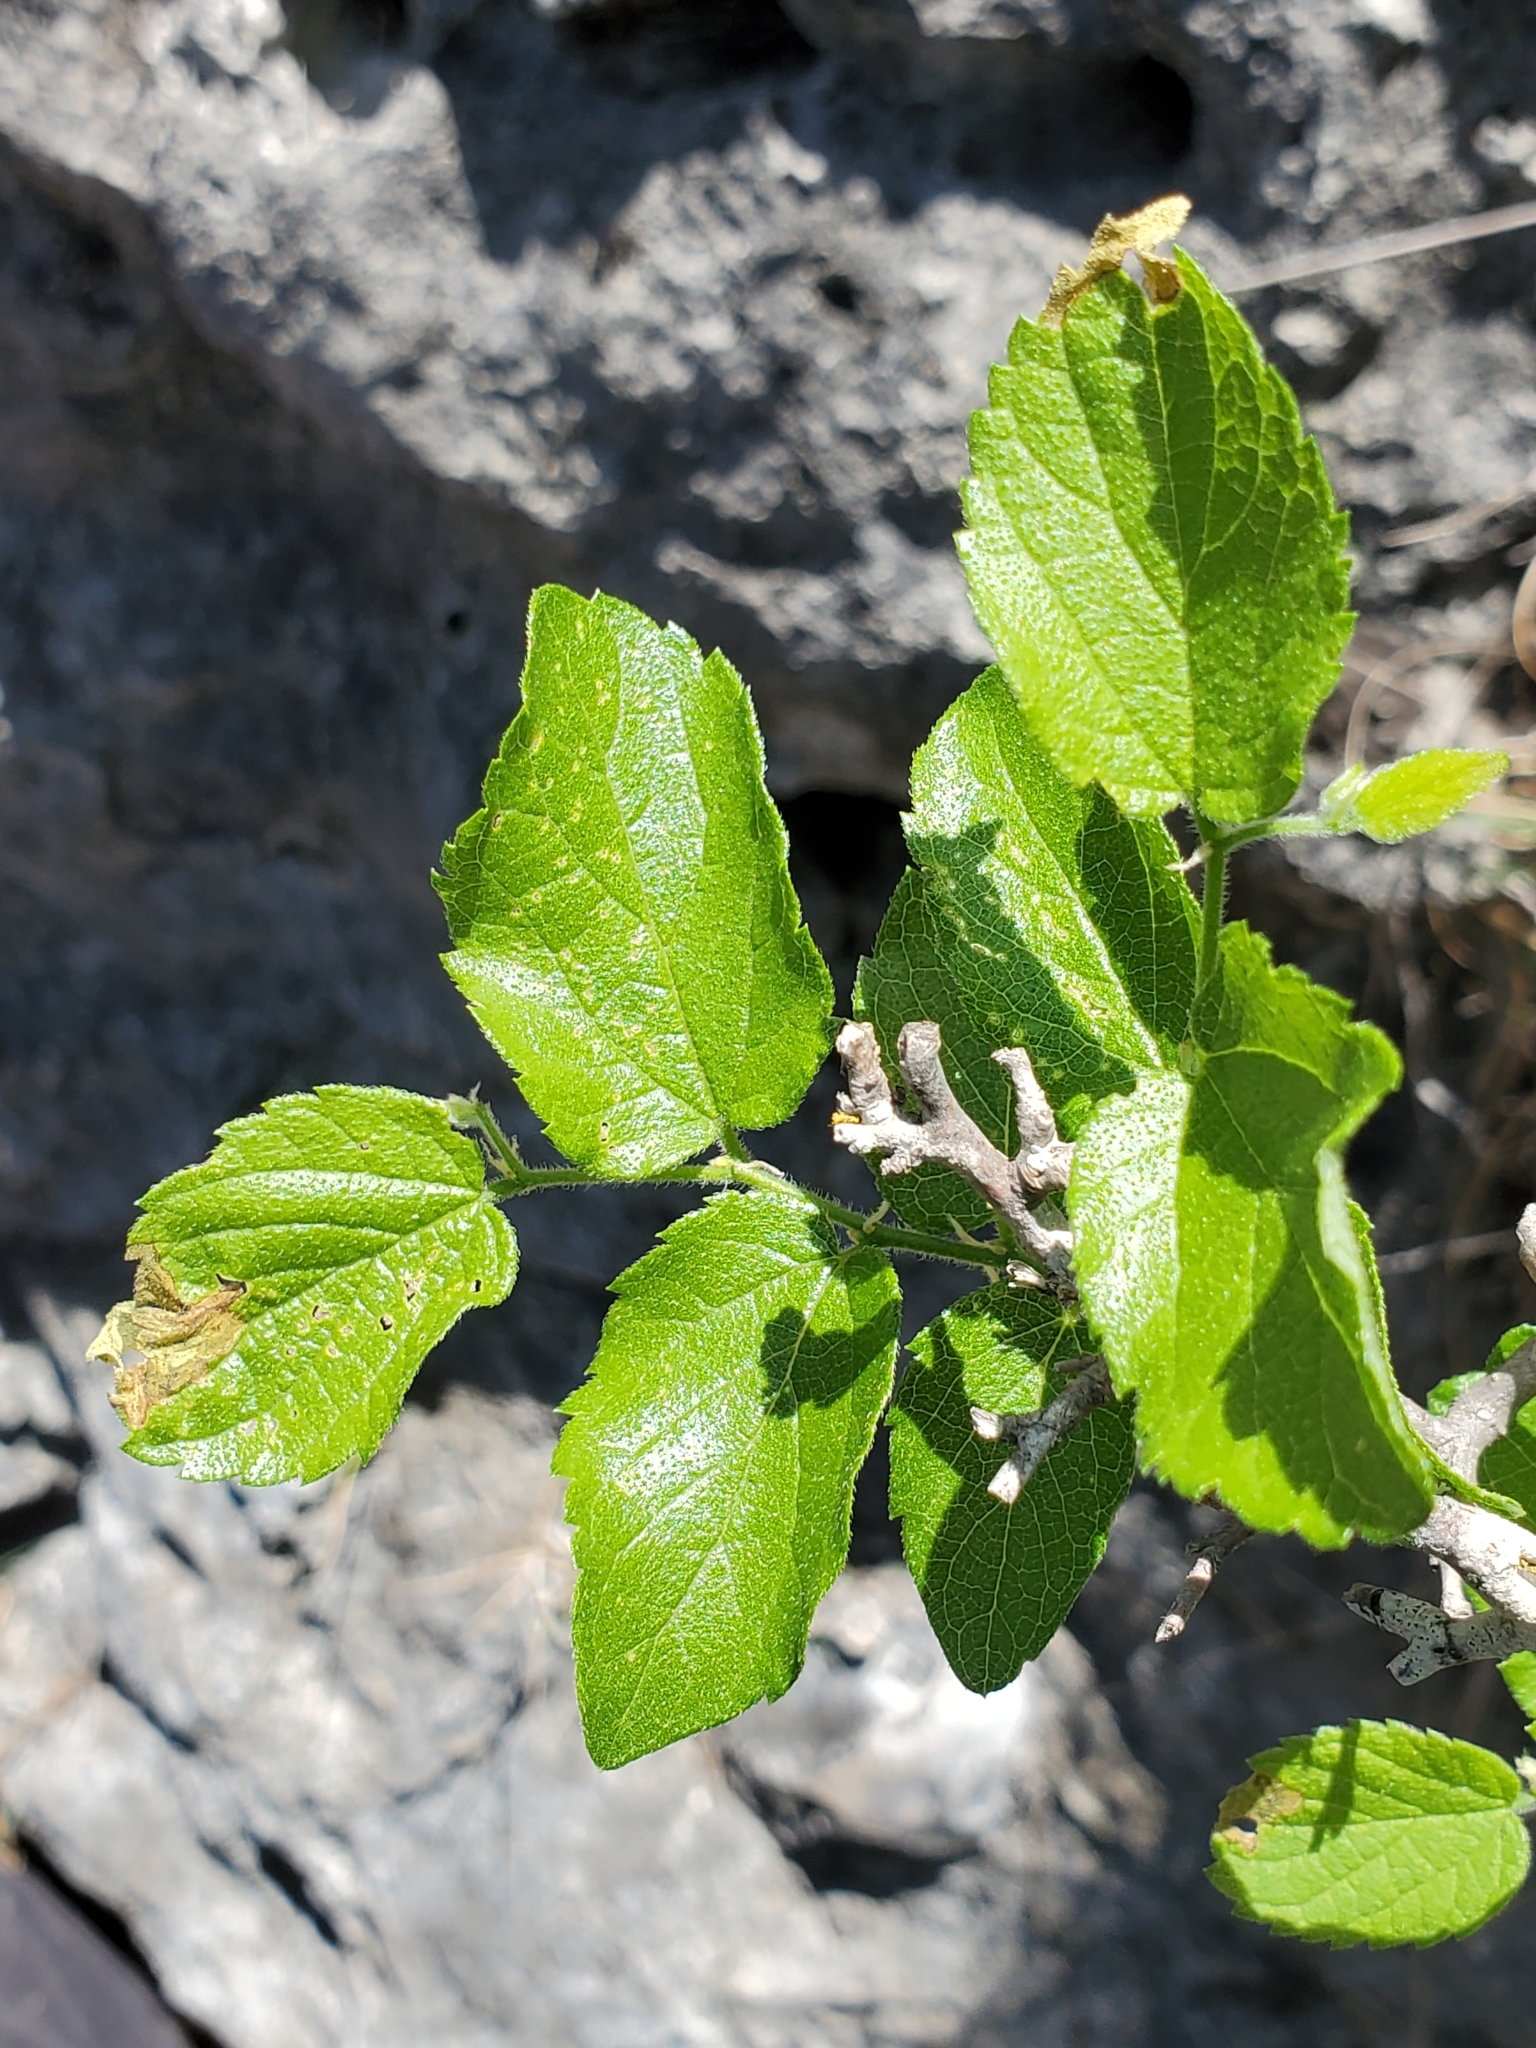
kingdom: Plantae
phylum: Tracheophyta
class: Magnoliopsida
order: Rosales
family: Cannabaceae
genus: Celtis
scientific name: Celtis reticulata
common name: Netleaf hackberry
